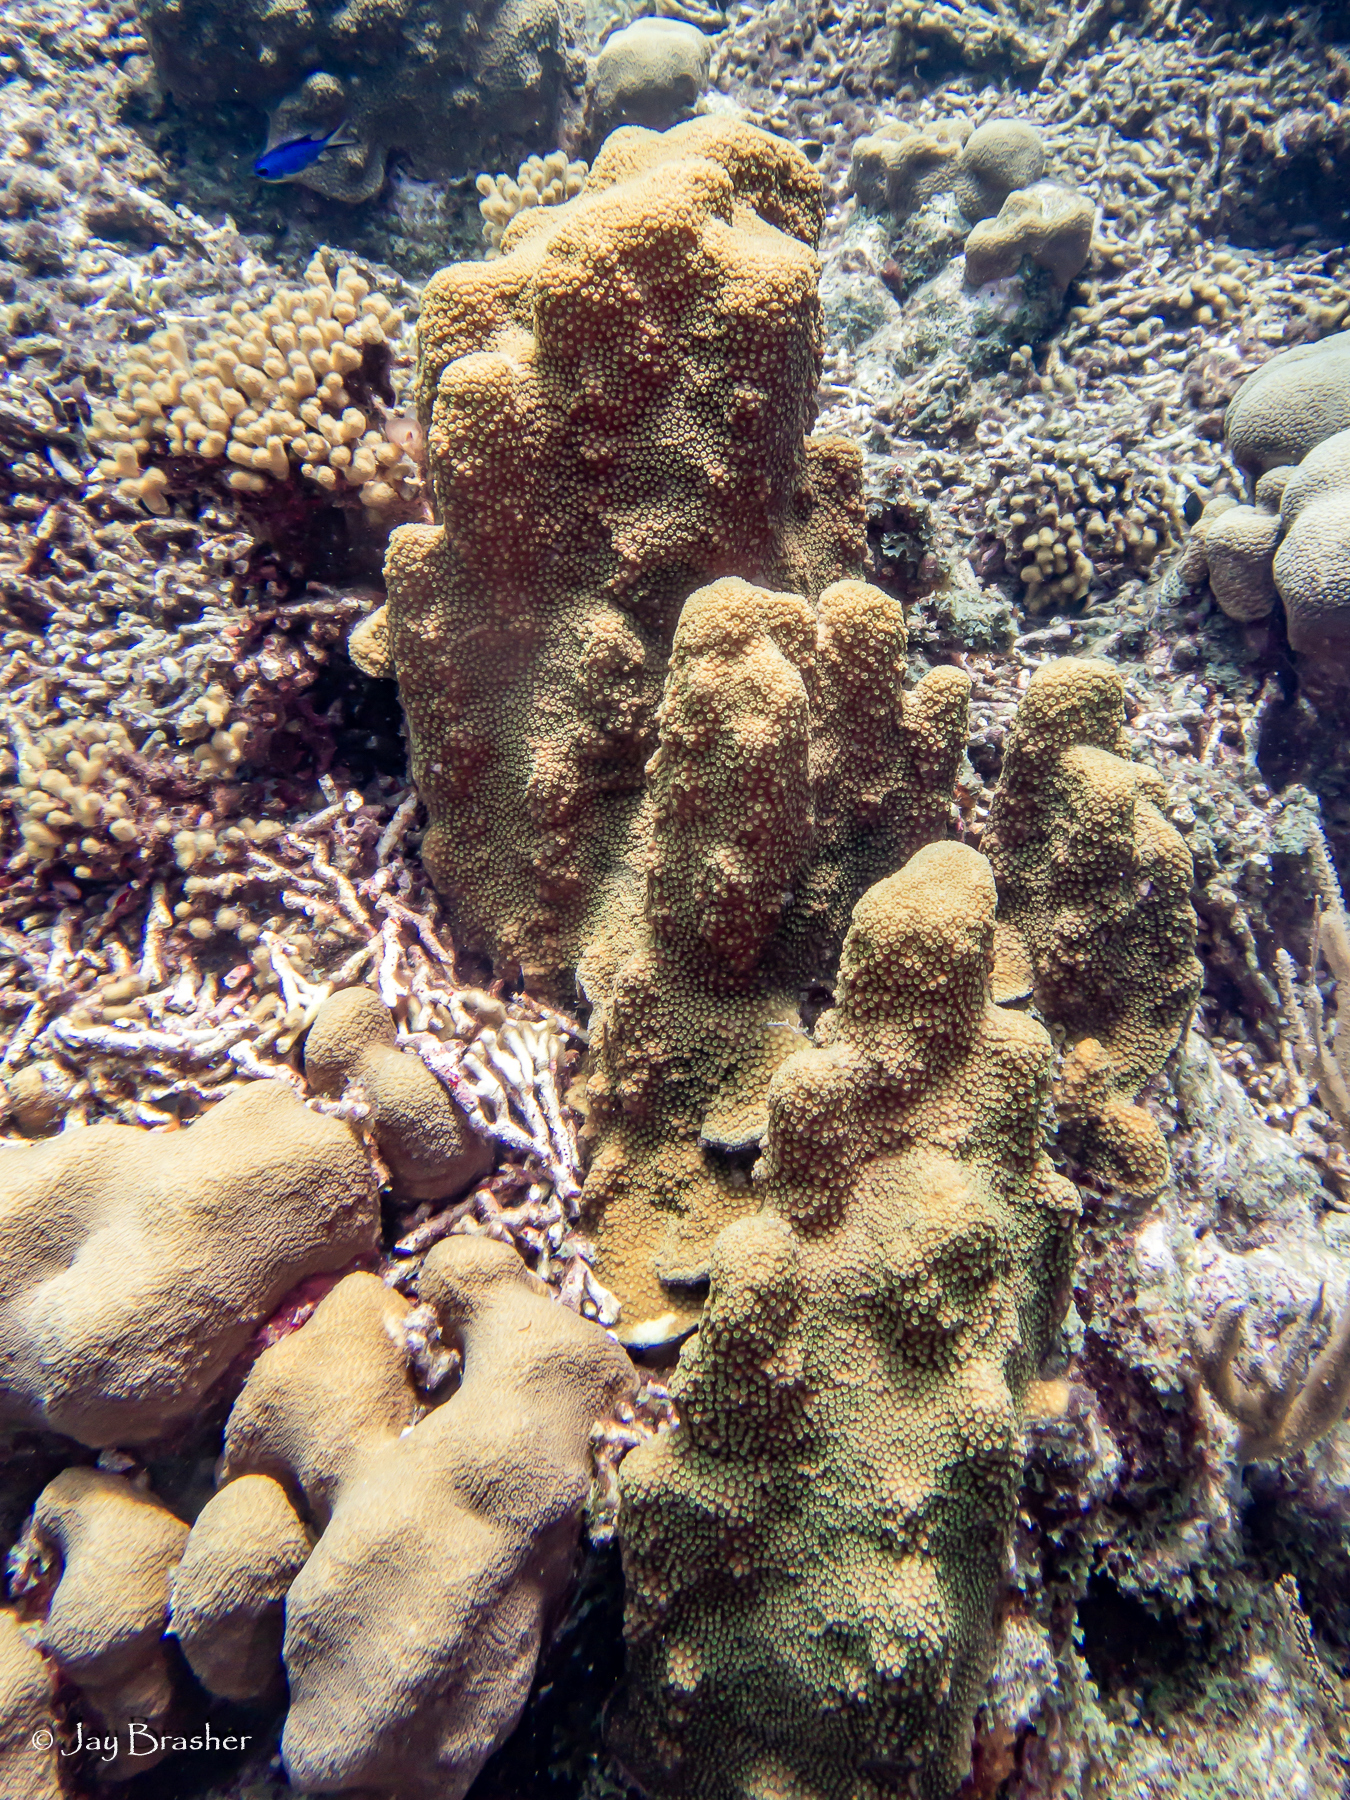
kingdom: Animalia
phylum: Cnidaria
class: Anthozoa
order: Scleractinia
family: Merulinidae
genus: Orbicella
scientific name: Orbicella faveolata
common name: Mountainous star coral
